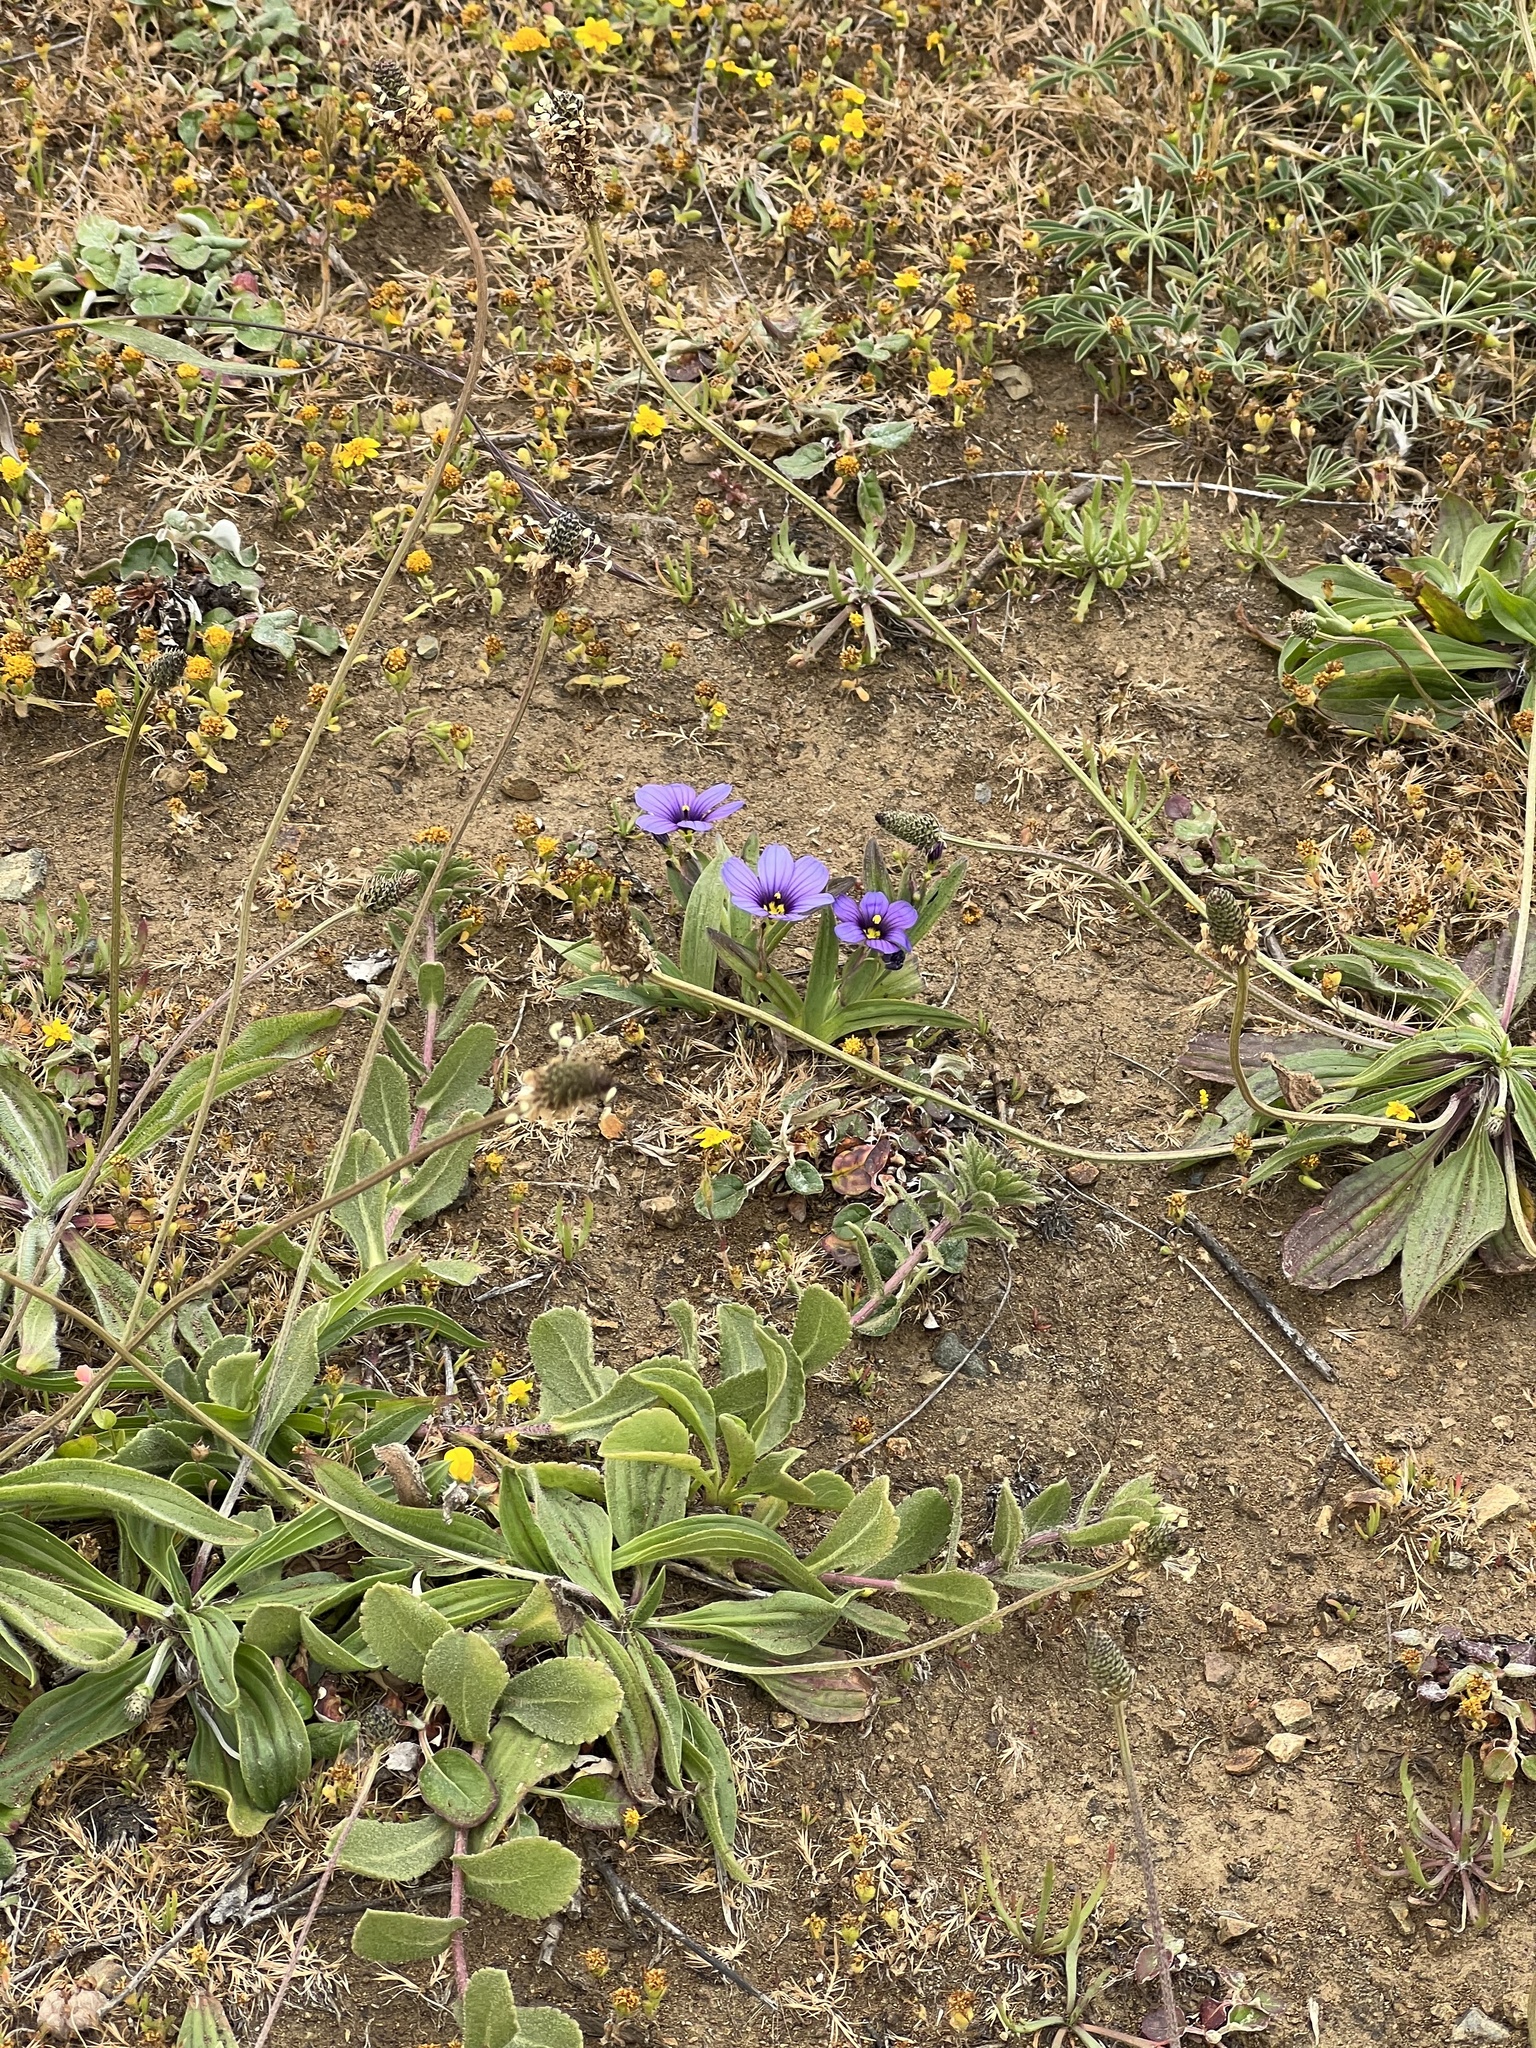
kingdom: Plantae
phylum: Tracheophyta
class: Liliopsida
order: Asparagales
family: Iridaceae
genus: Sisyrinchium
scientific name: Sisyrinchium bellum
